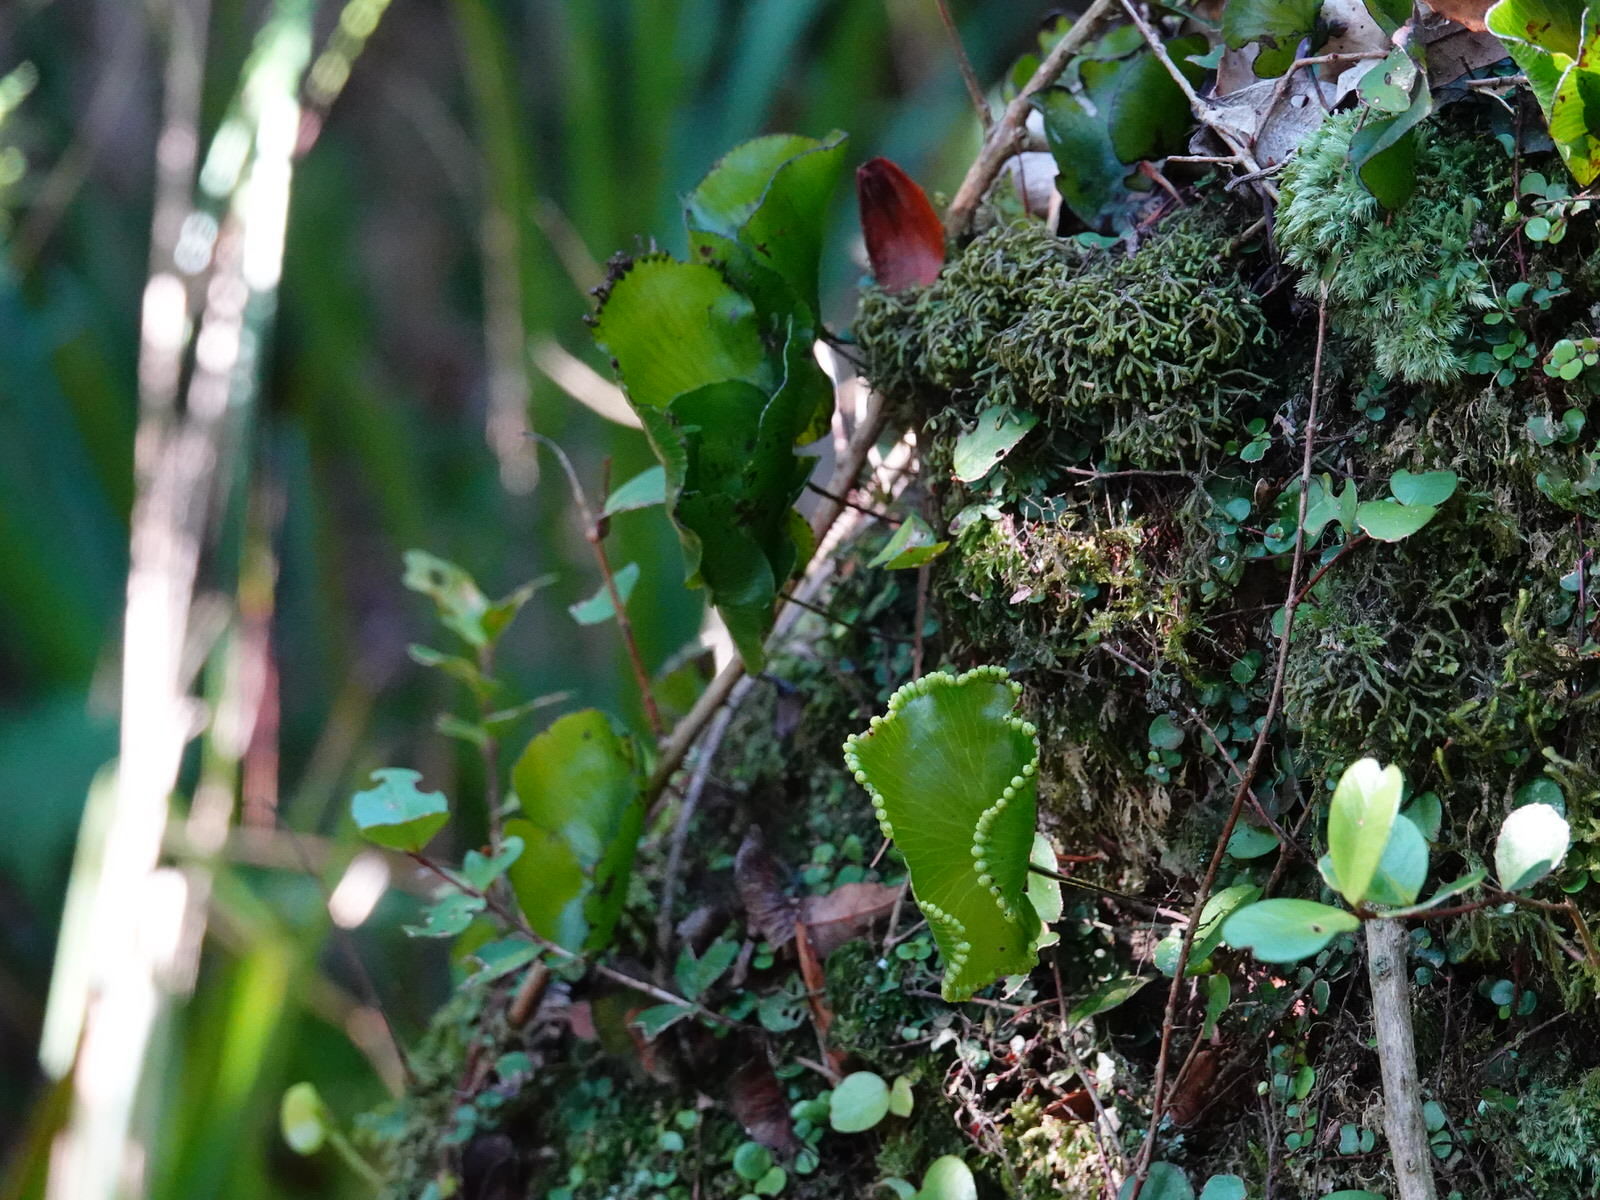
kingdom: Plantae
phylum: Tracheophyta
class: Polypodiopsida
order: Hymenophyllales
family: Hymenophyllaceae
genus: Hymenophyllum
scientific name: Hymenophyllum nephrophyllum
